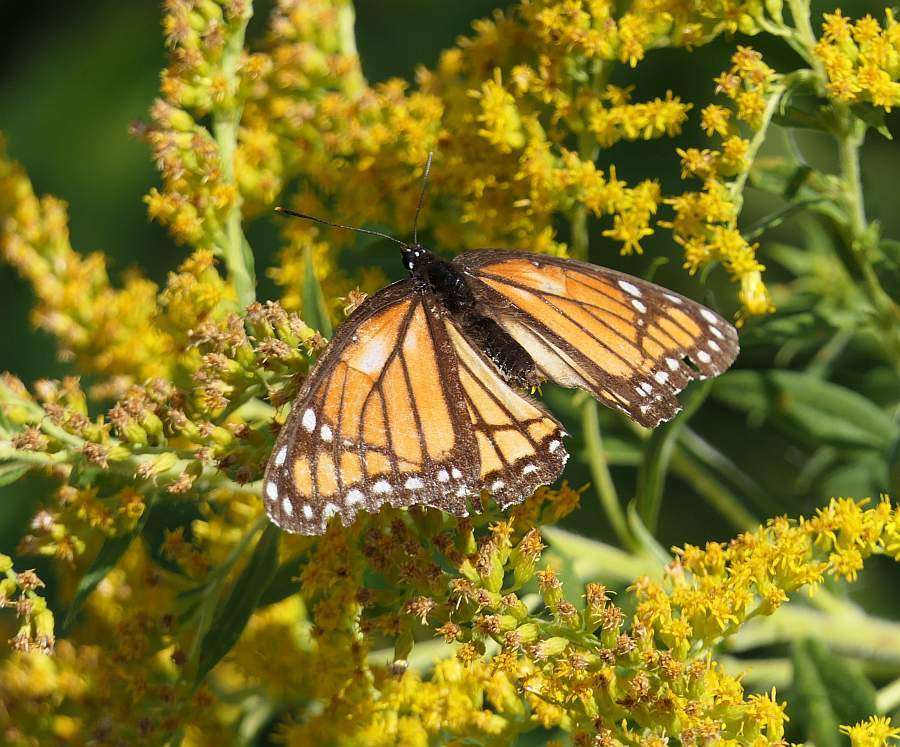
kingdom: Animalia
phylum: Arthropoda
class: Insecta
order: Lepidoptera
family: Nymphalidae
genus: Limenitis
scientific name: Limenitis archippus
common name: Viceroy
